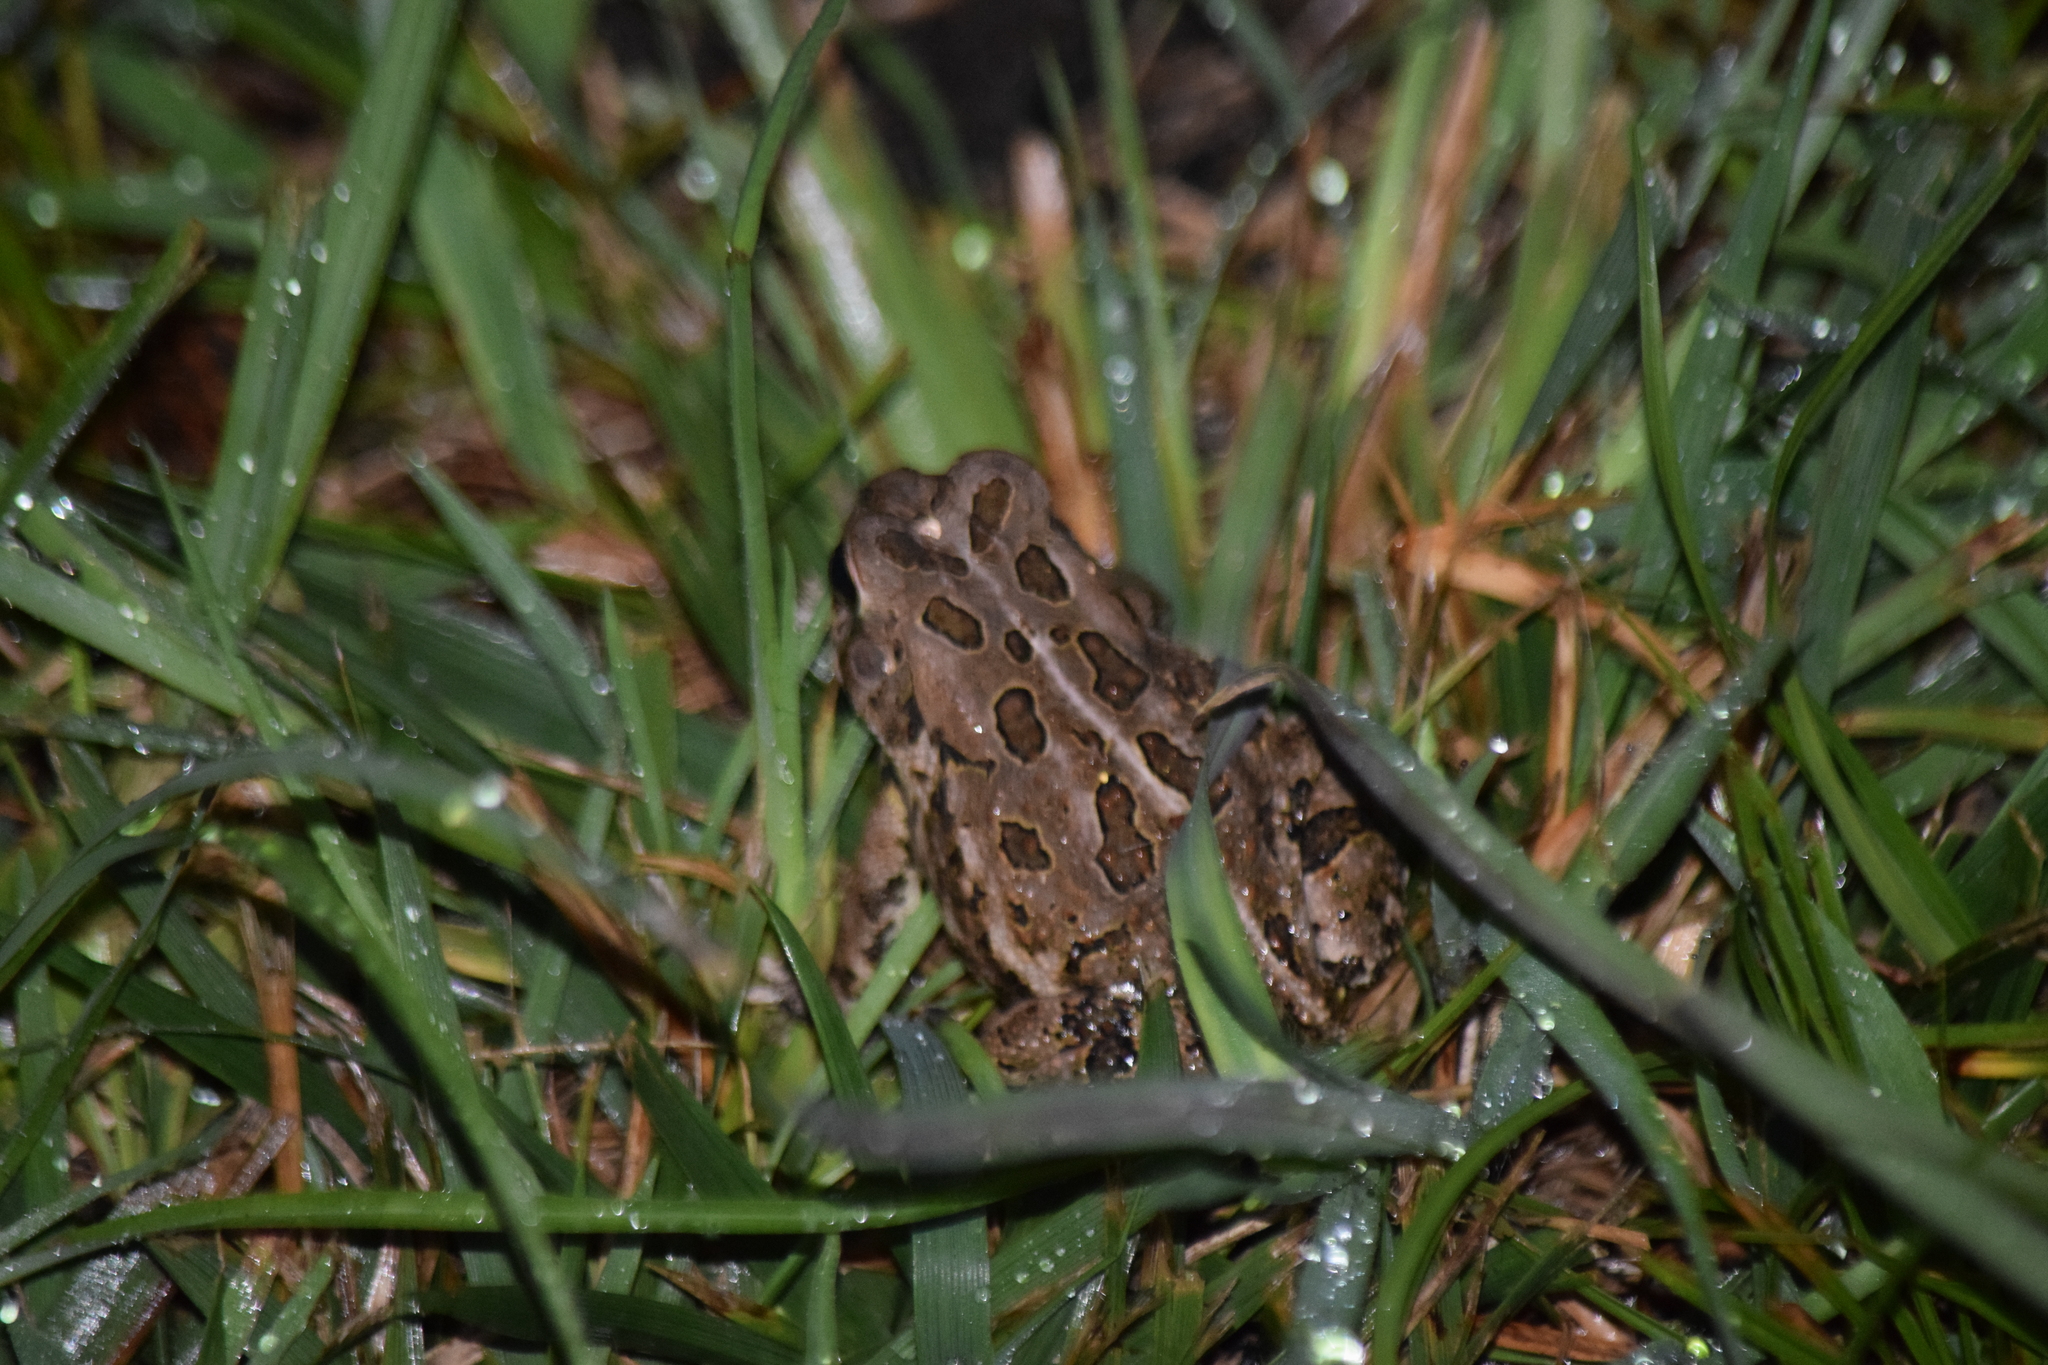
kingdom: Animalia
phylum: Chordata
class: Amphibia
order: Anura
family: Bufonidae
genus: Anaxyrus
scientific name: Anaxyrus fowleri
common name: Fowler's toad
